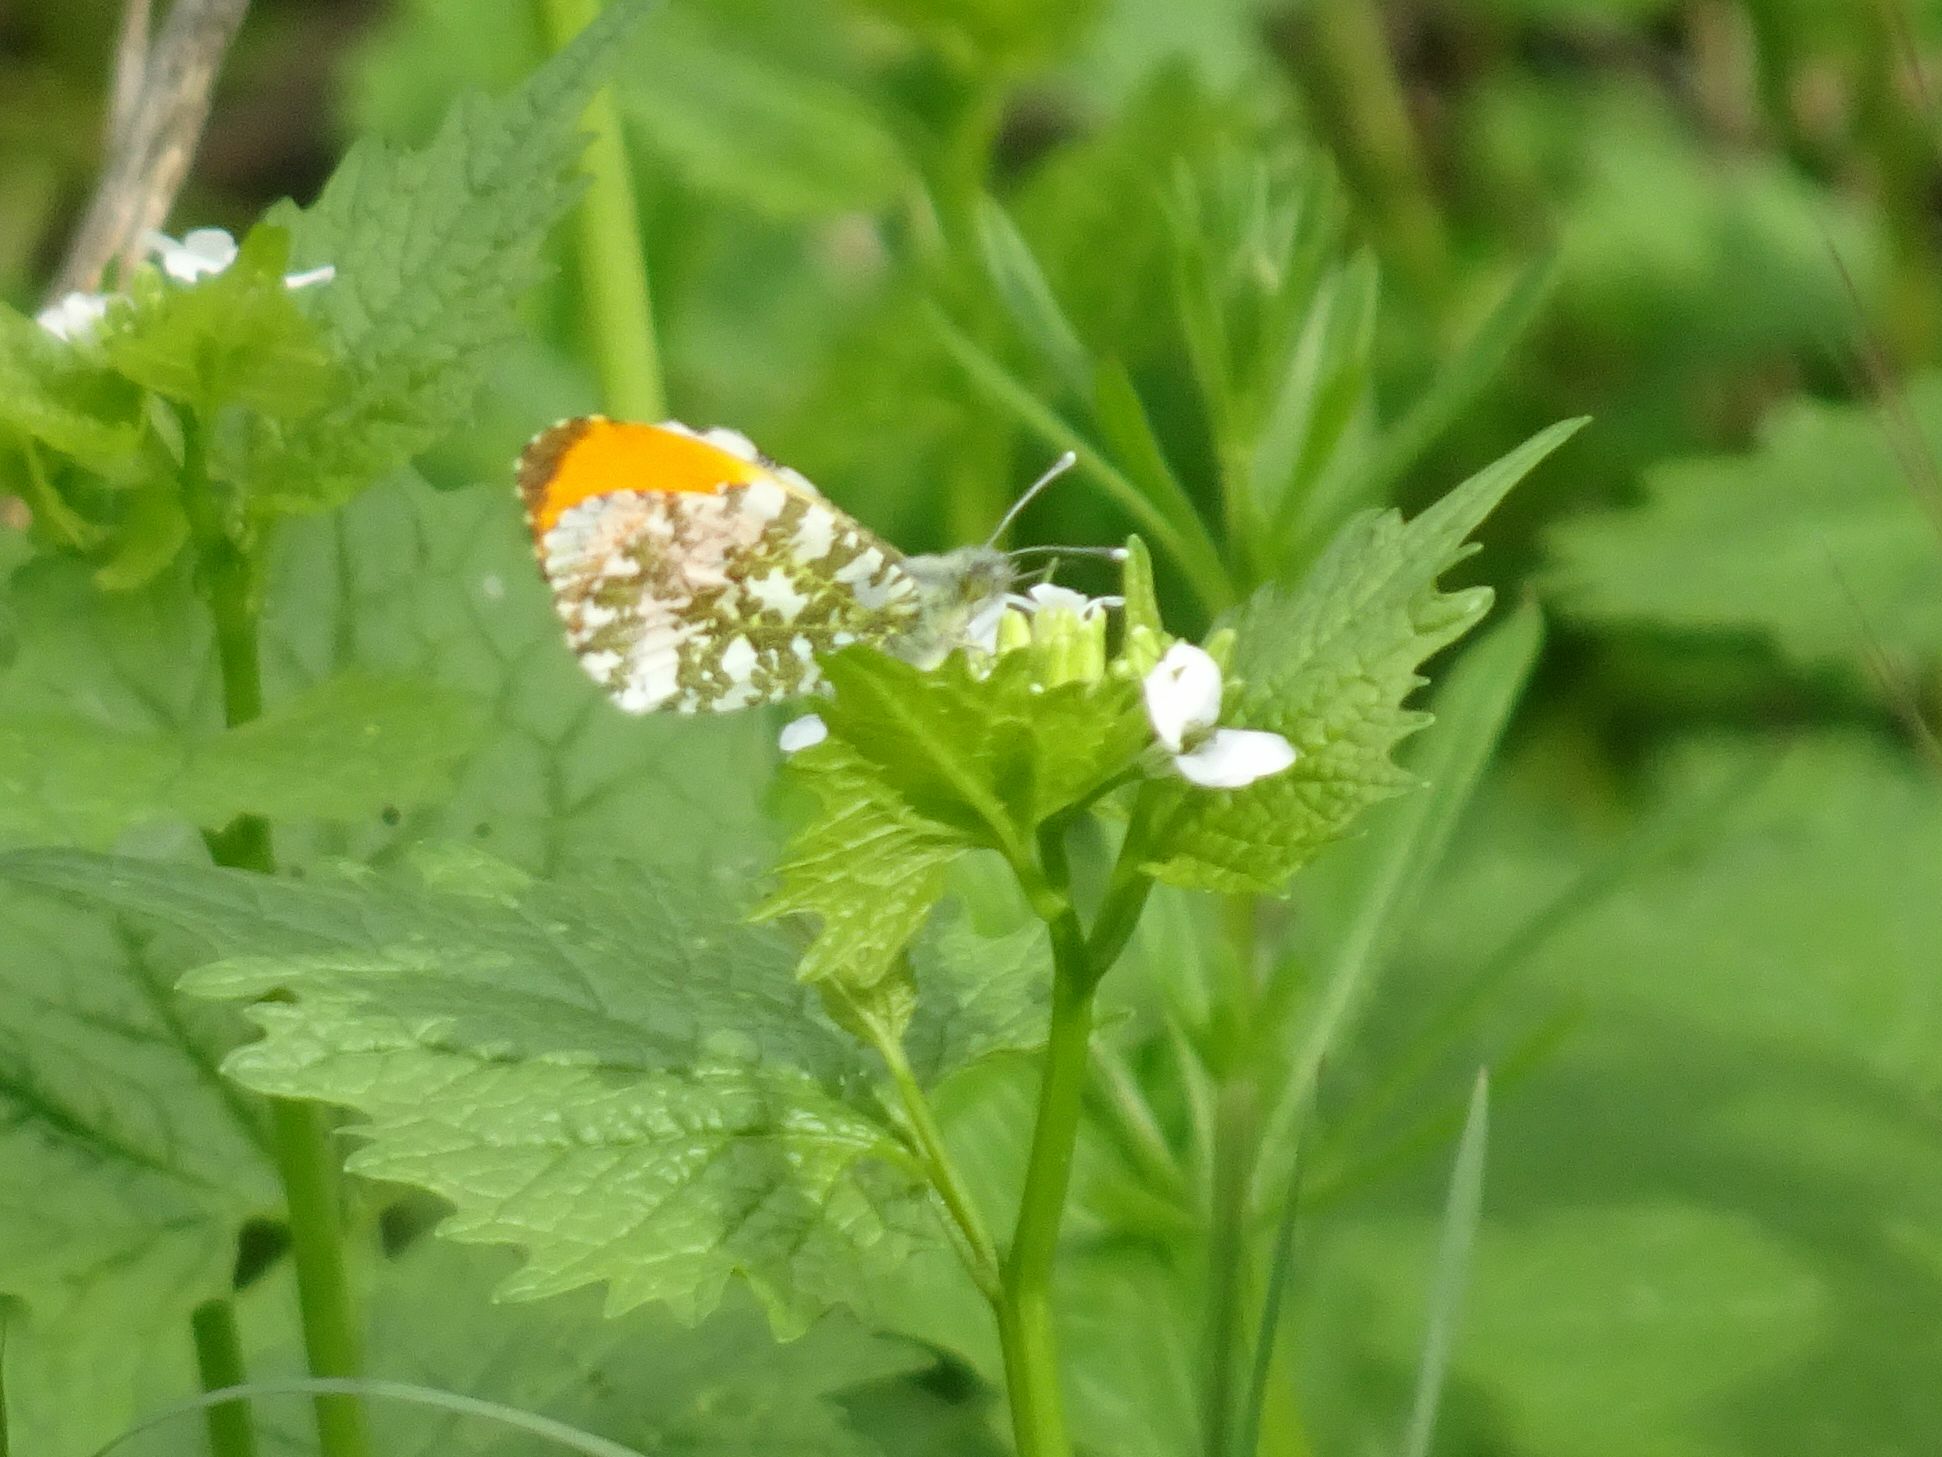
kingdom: Animalia
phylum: Arthropoda
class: Insecta
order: Lepidoptera
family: Pieridae
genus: Anthocharis
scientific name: Anthocharis cardamines
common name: Orange-tip
